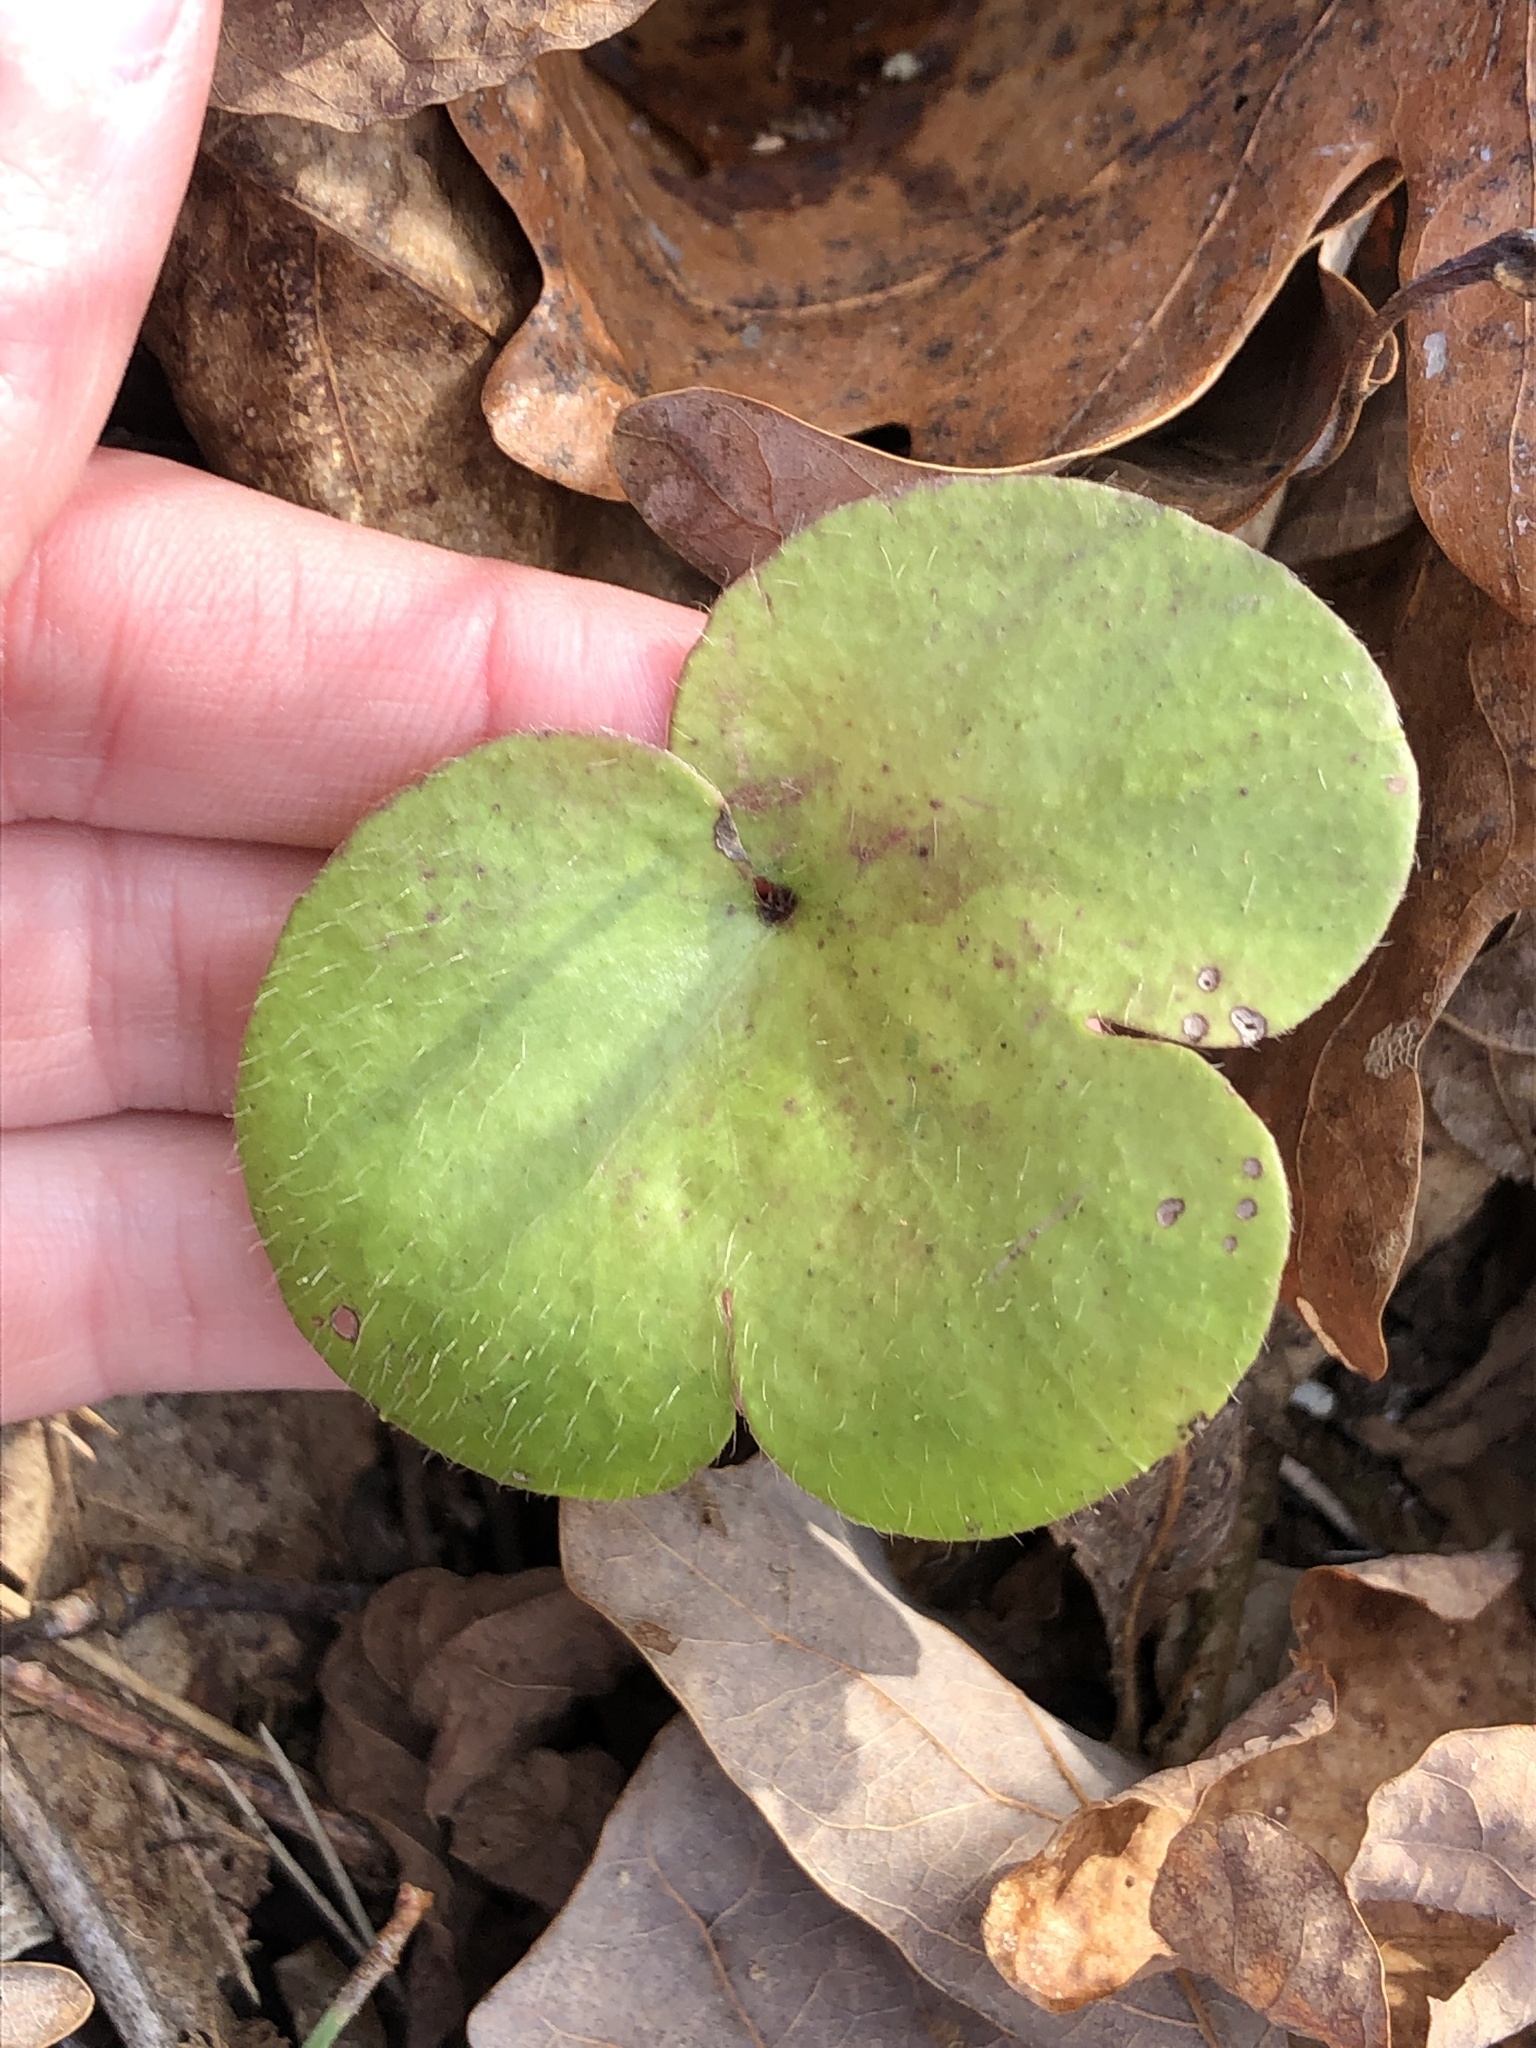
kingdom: Plantae
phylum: Tracheophyta
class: Magnoliopsida
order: Ranunculales
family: Ranunculaceae
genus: Hepatica
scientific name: Hepatica americana
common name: American hepatica
